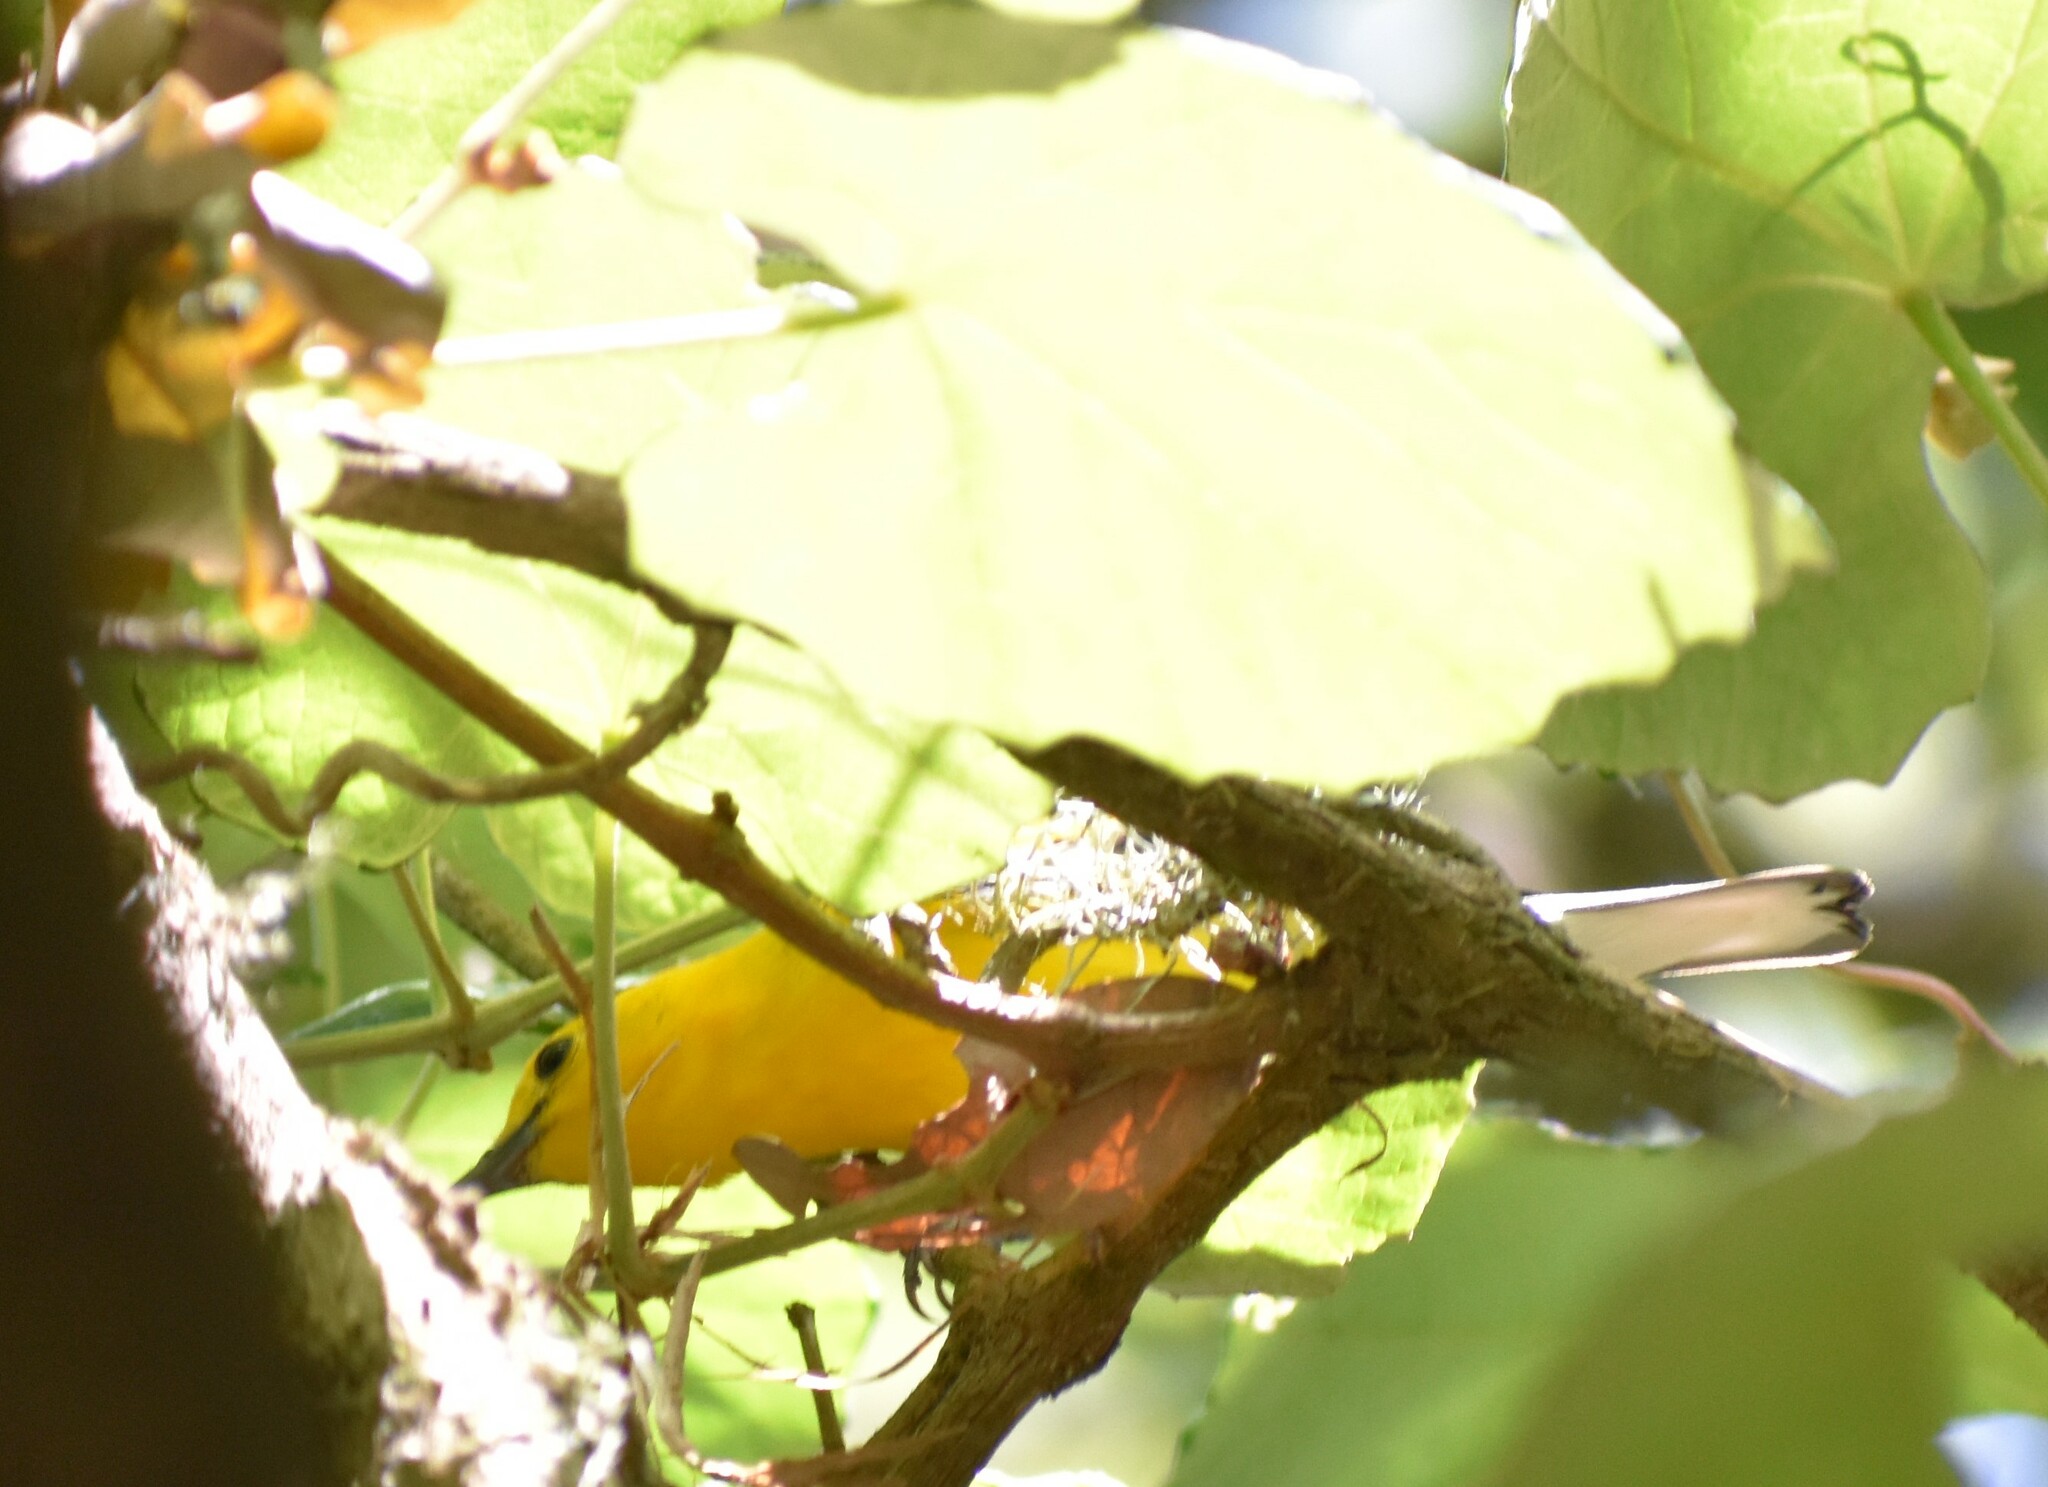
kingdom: Animalia
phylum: Chordata
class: Aves
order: Passeriformes
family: Parulidae
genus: Protonotaria
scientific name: Protonotaria citrea
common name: Prothonotary warbler
